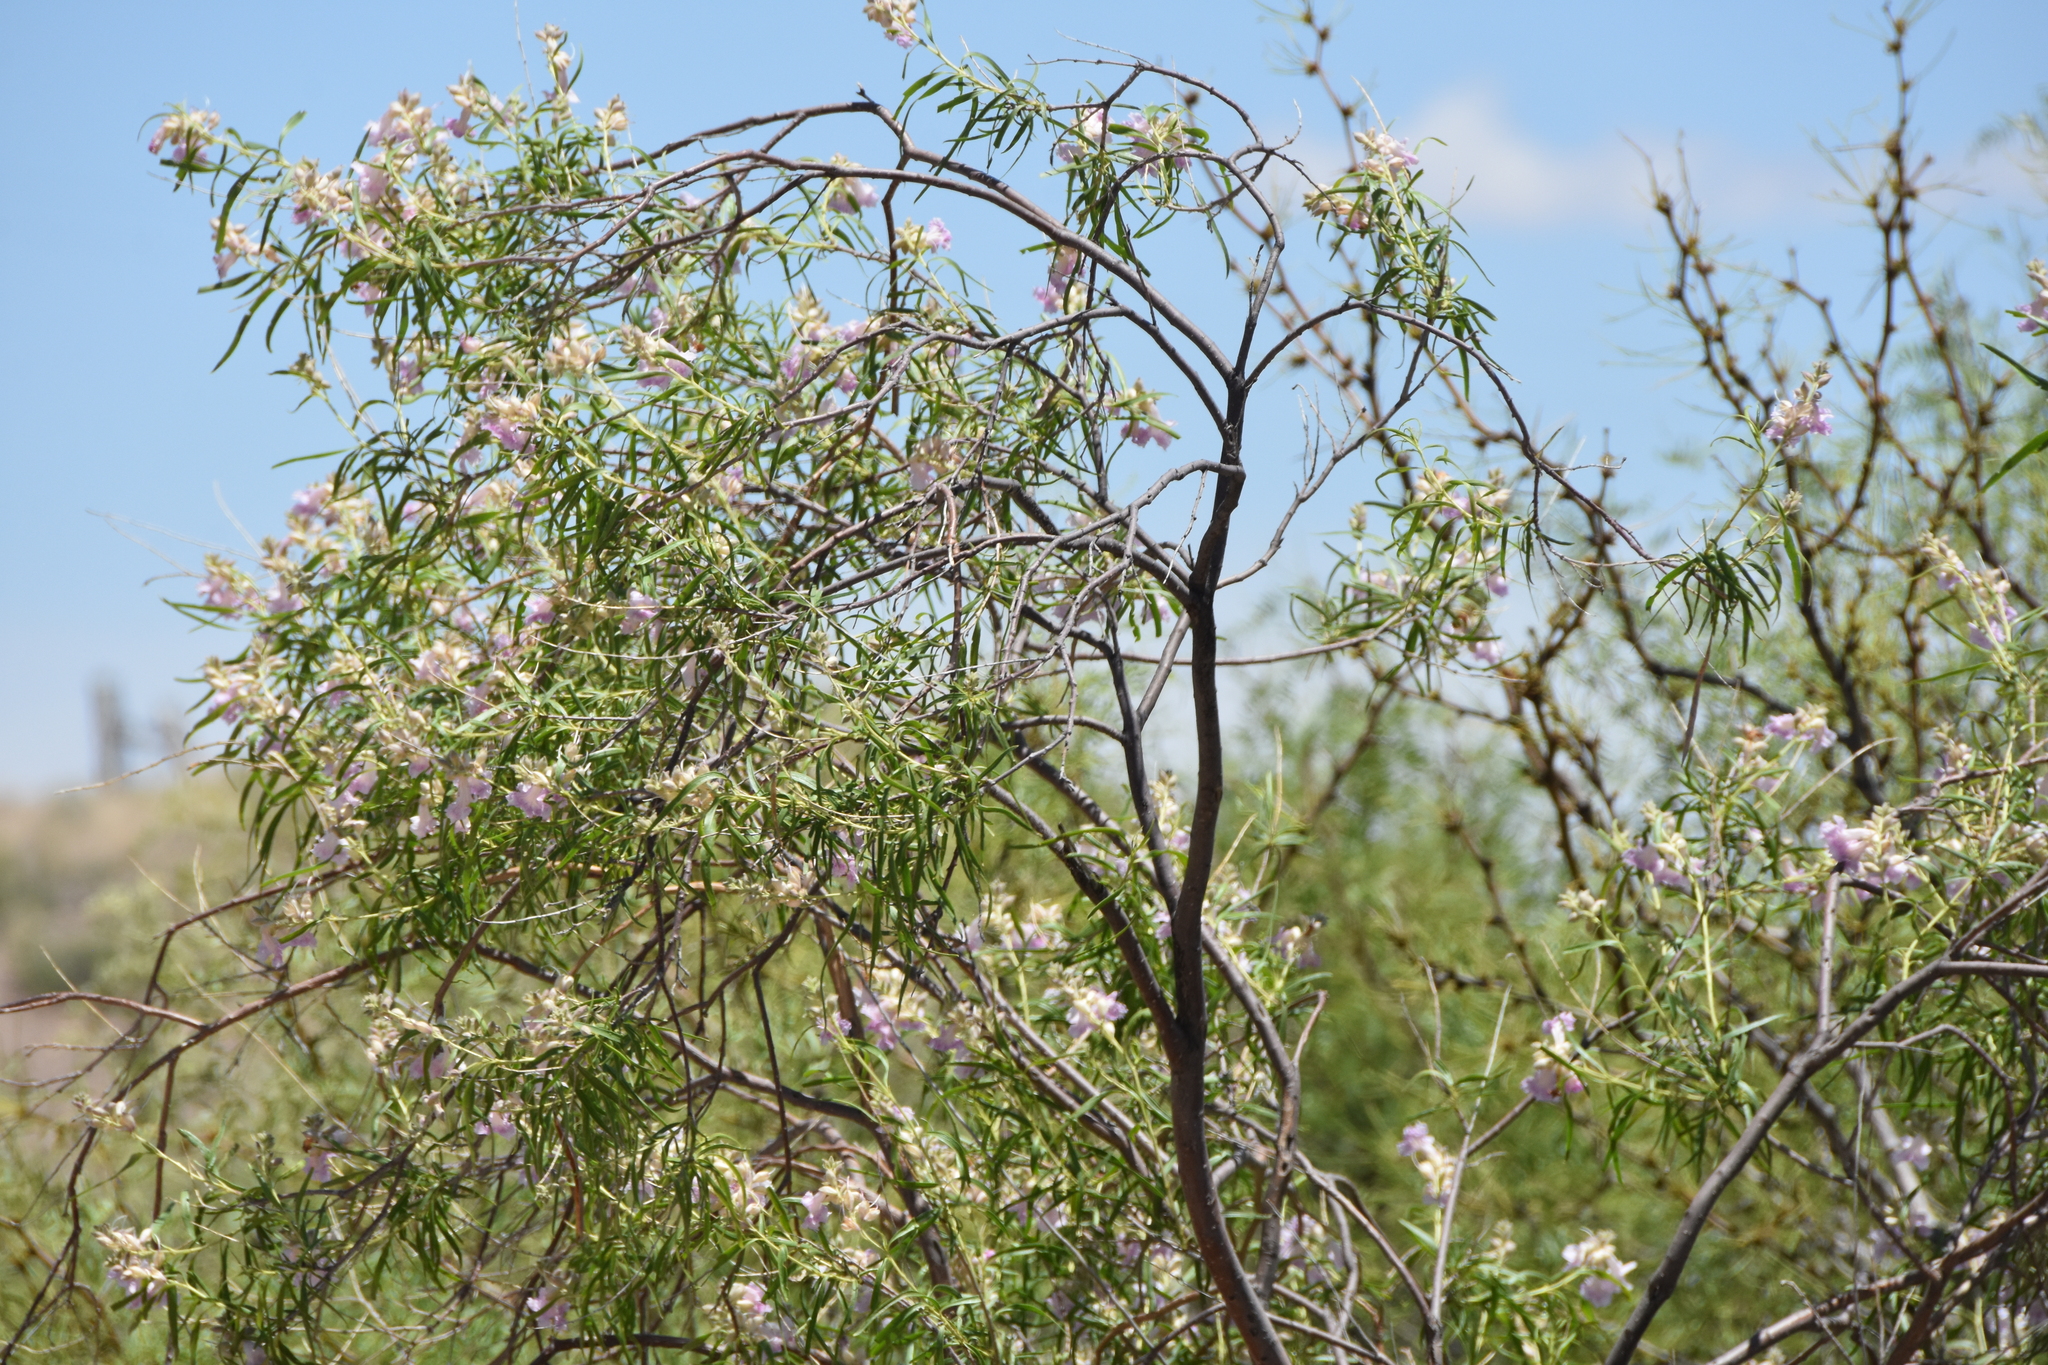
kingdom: Plantae
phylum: Tracheophyta
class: Magnoliopsida
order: Lamiales
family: Bignoniaceae
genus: Chilopsis
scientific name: Chilopsis linearis
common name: Desert-willow
